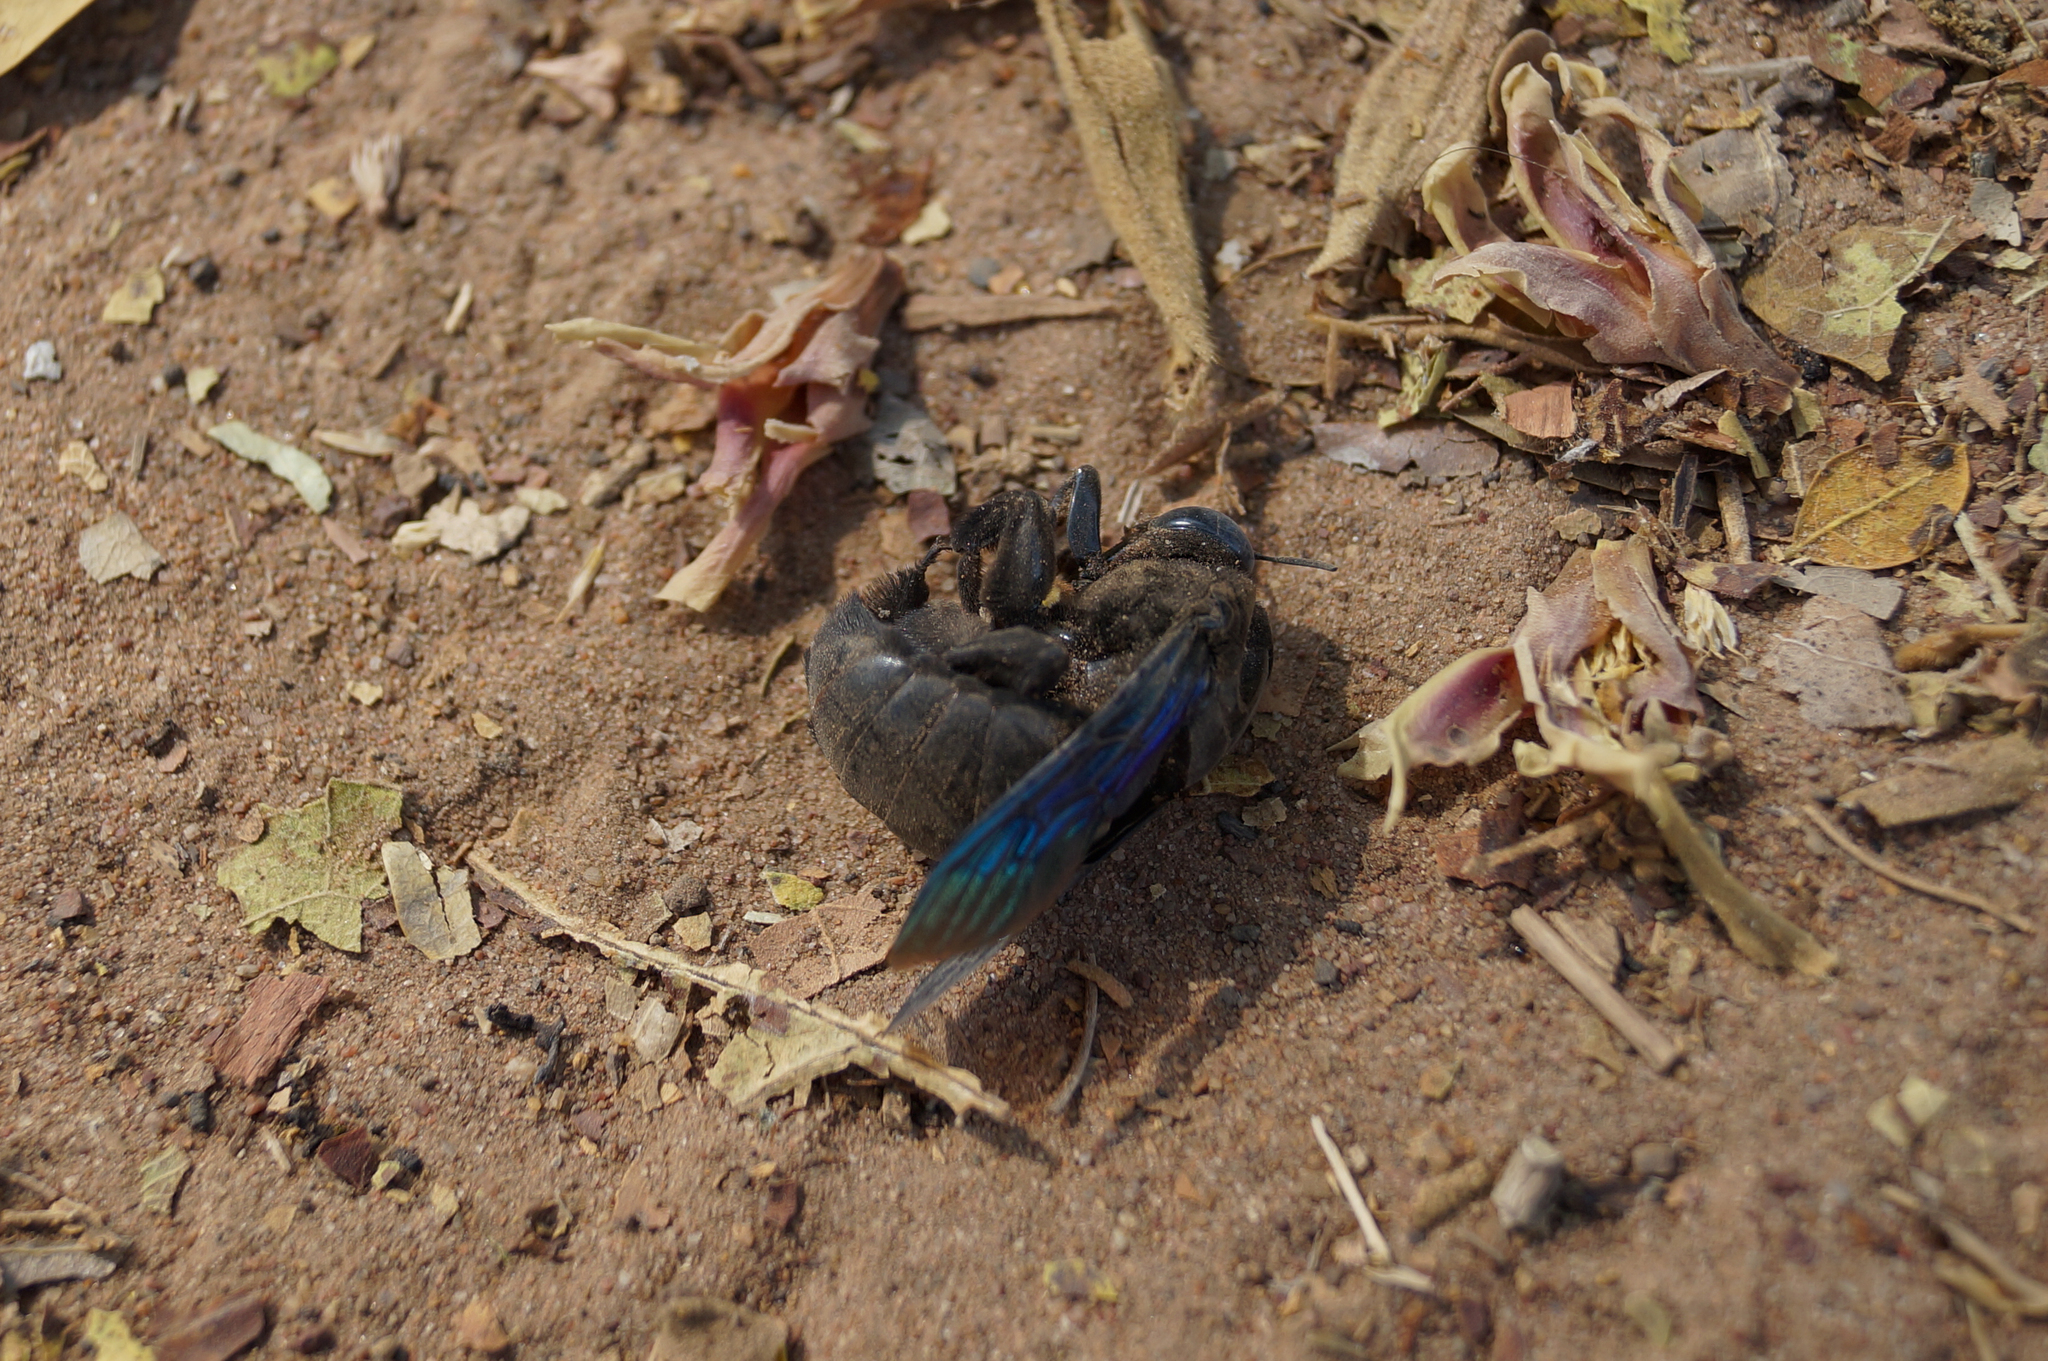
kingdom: Animalia
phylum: Arthropoda
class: Insecta
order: Hymenoptera
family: Apidae
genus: Xylocopa
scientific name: Xylocopa tenuiscapa
